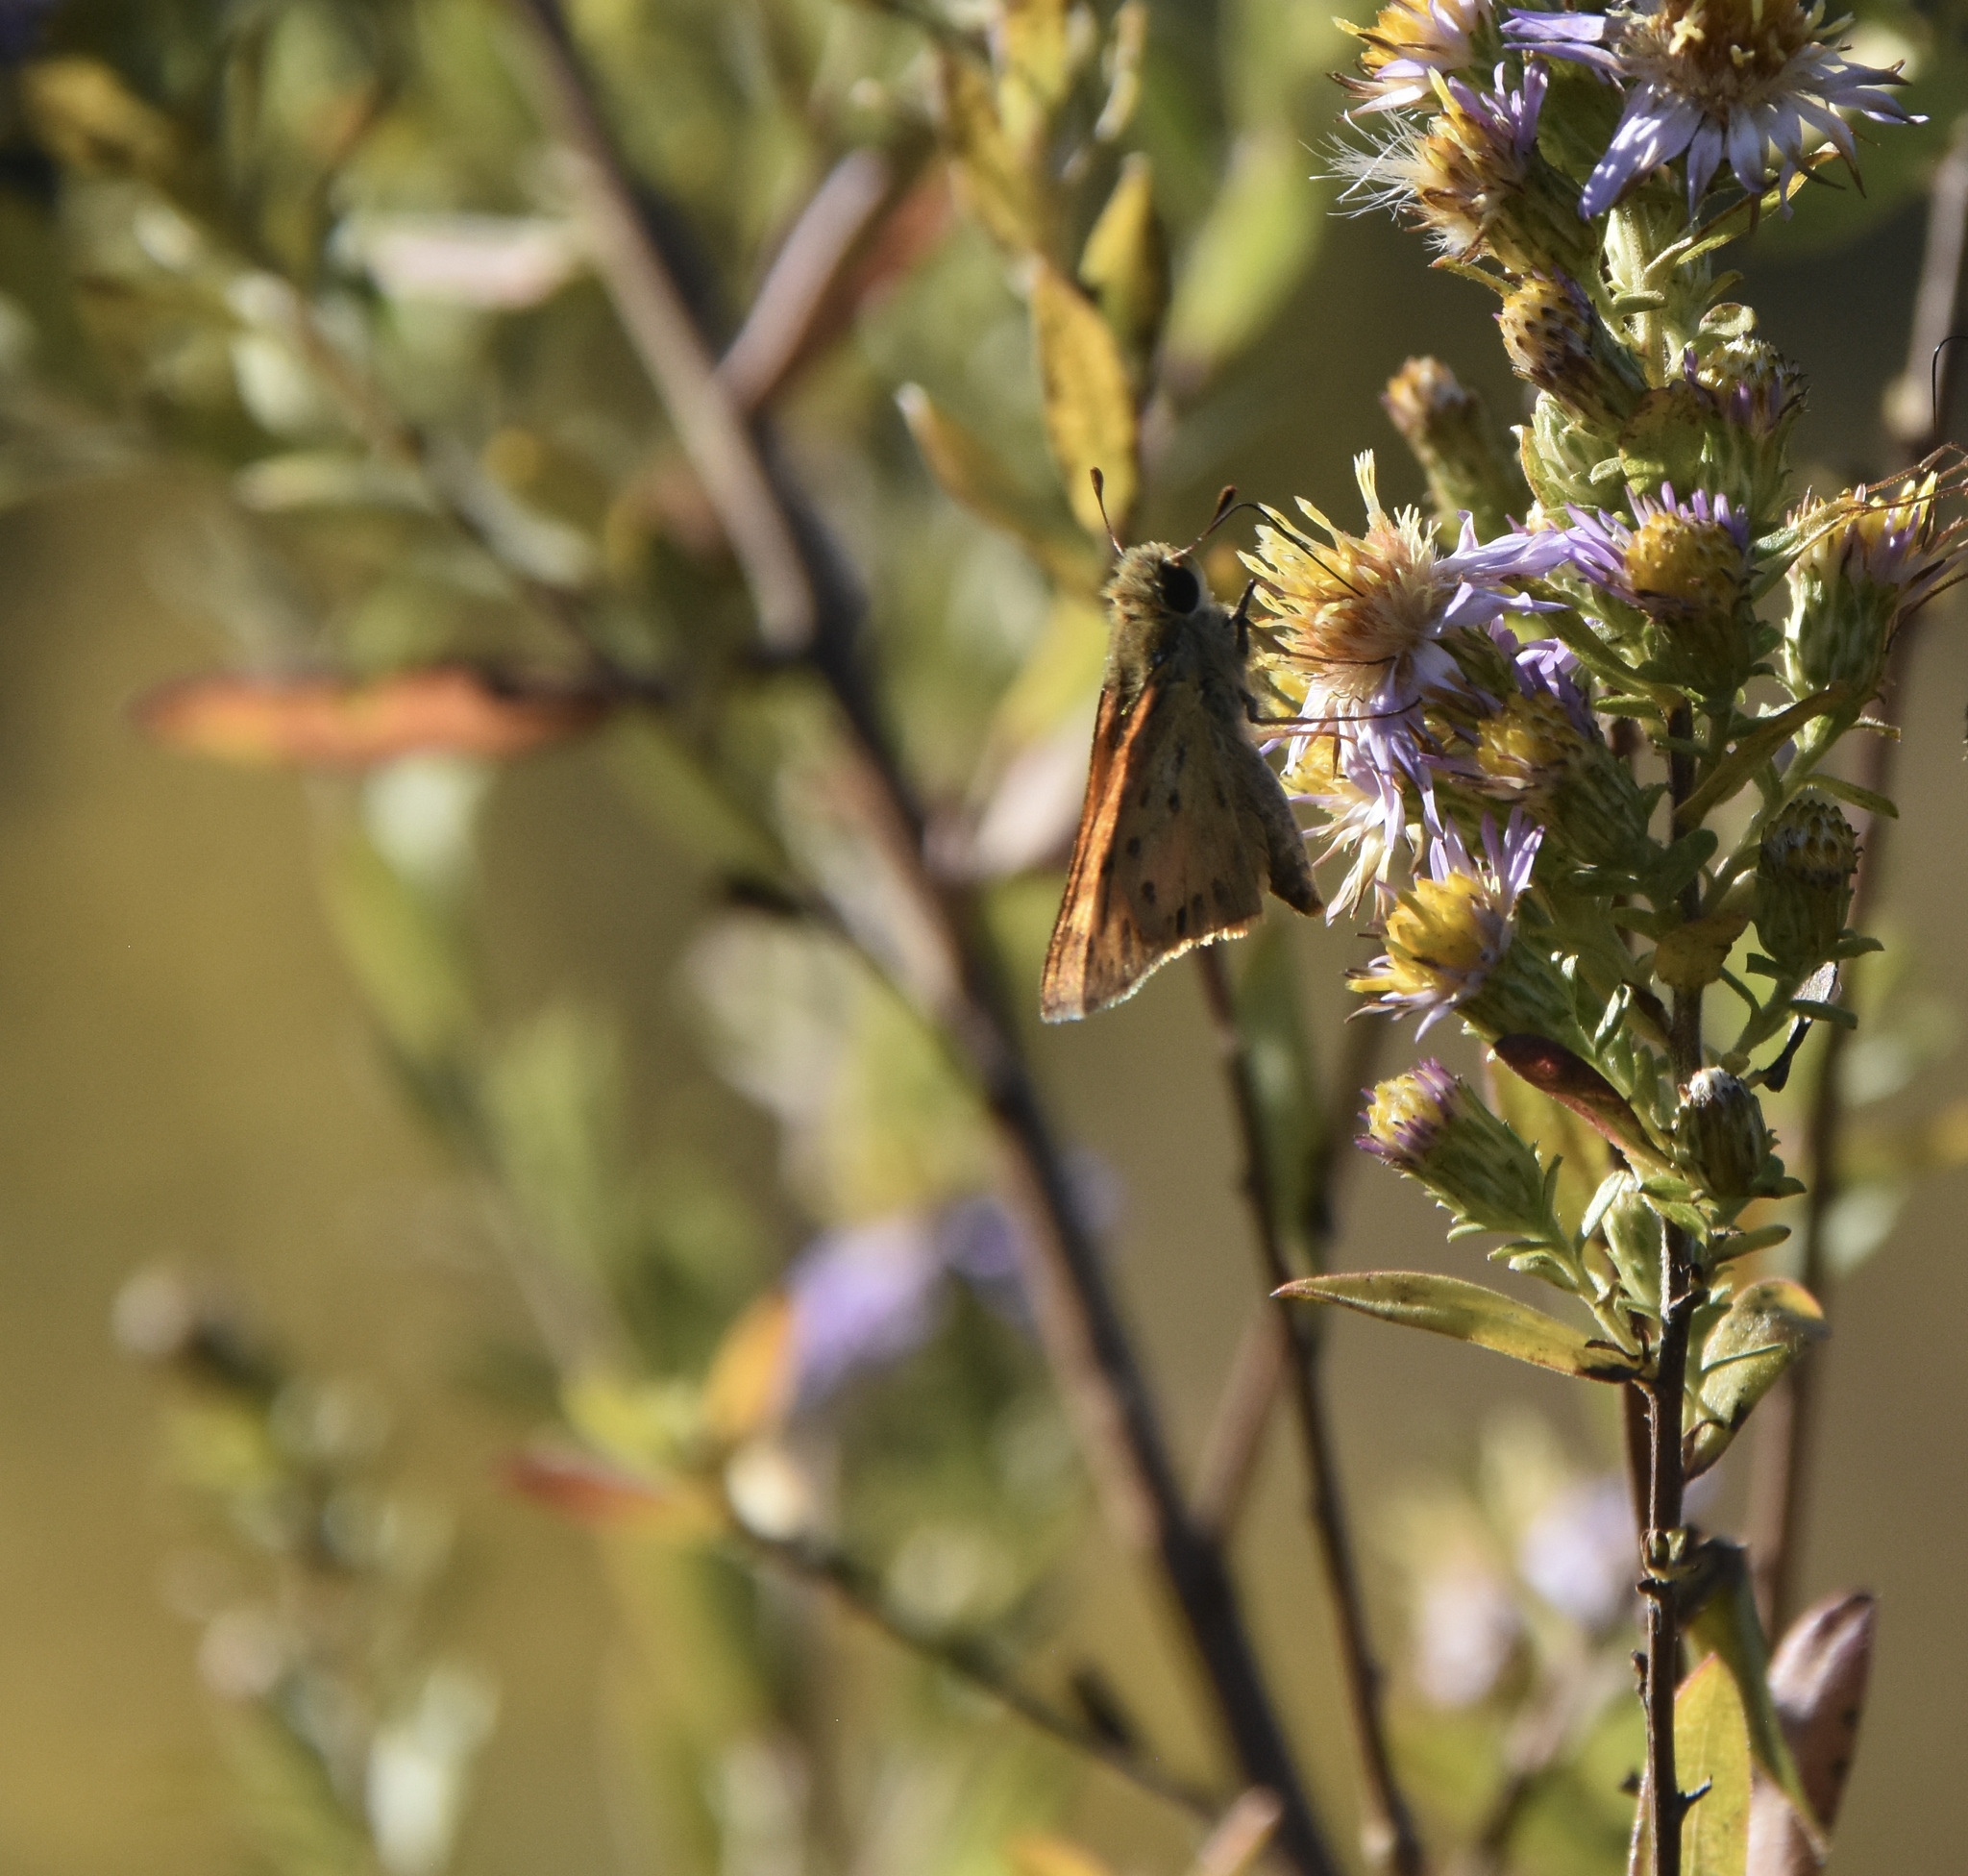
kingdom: Animalia
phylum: Arthropoda
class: Insecta
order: Lepidoptera
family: Hesperiidae
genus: Hylephila
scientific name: Hylephila phyleus
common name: Fiery skipper
